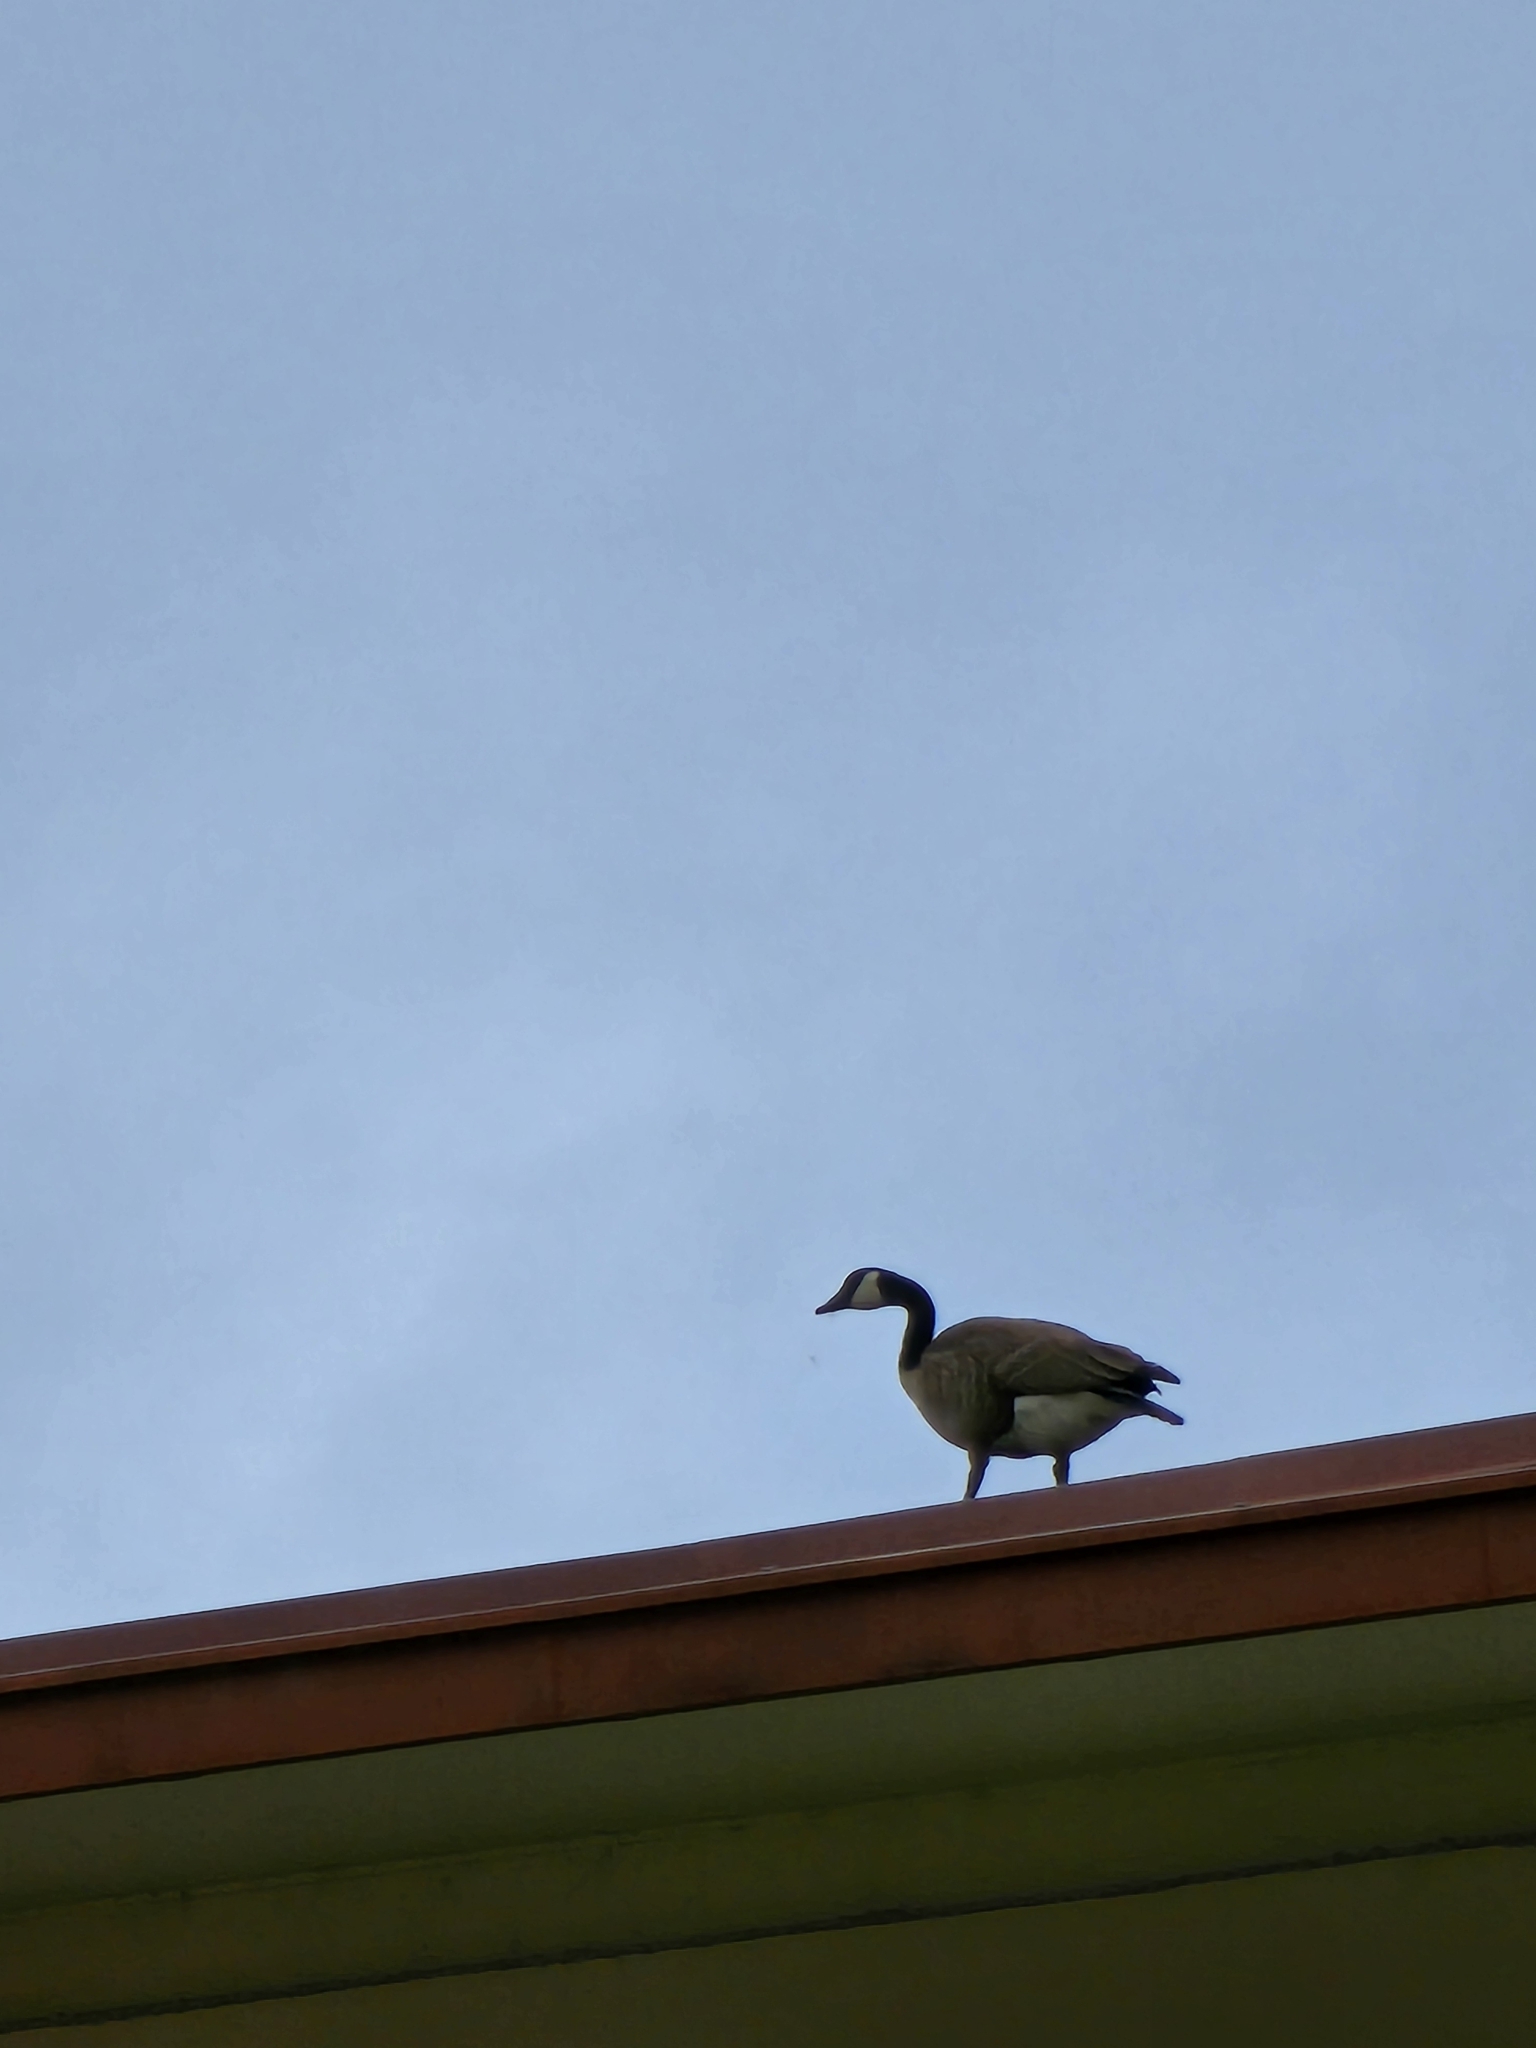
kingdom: Animalia
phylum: Chordata
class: Aves
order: Anseriformes
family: Anatidae
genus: Branta
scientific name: Branta canadensis
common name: Canada goose
